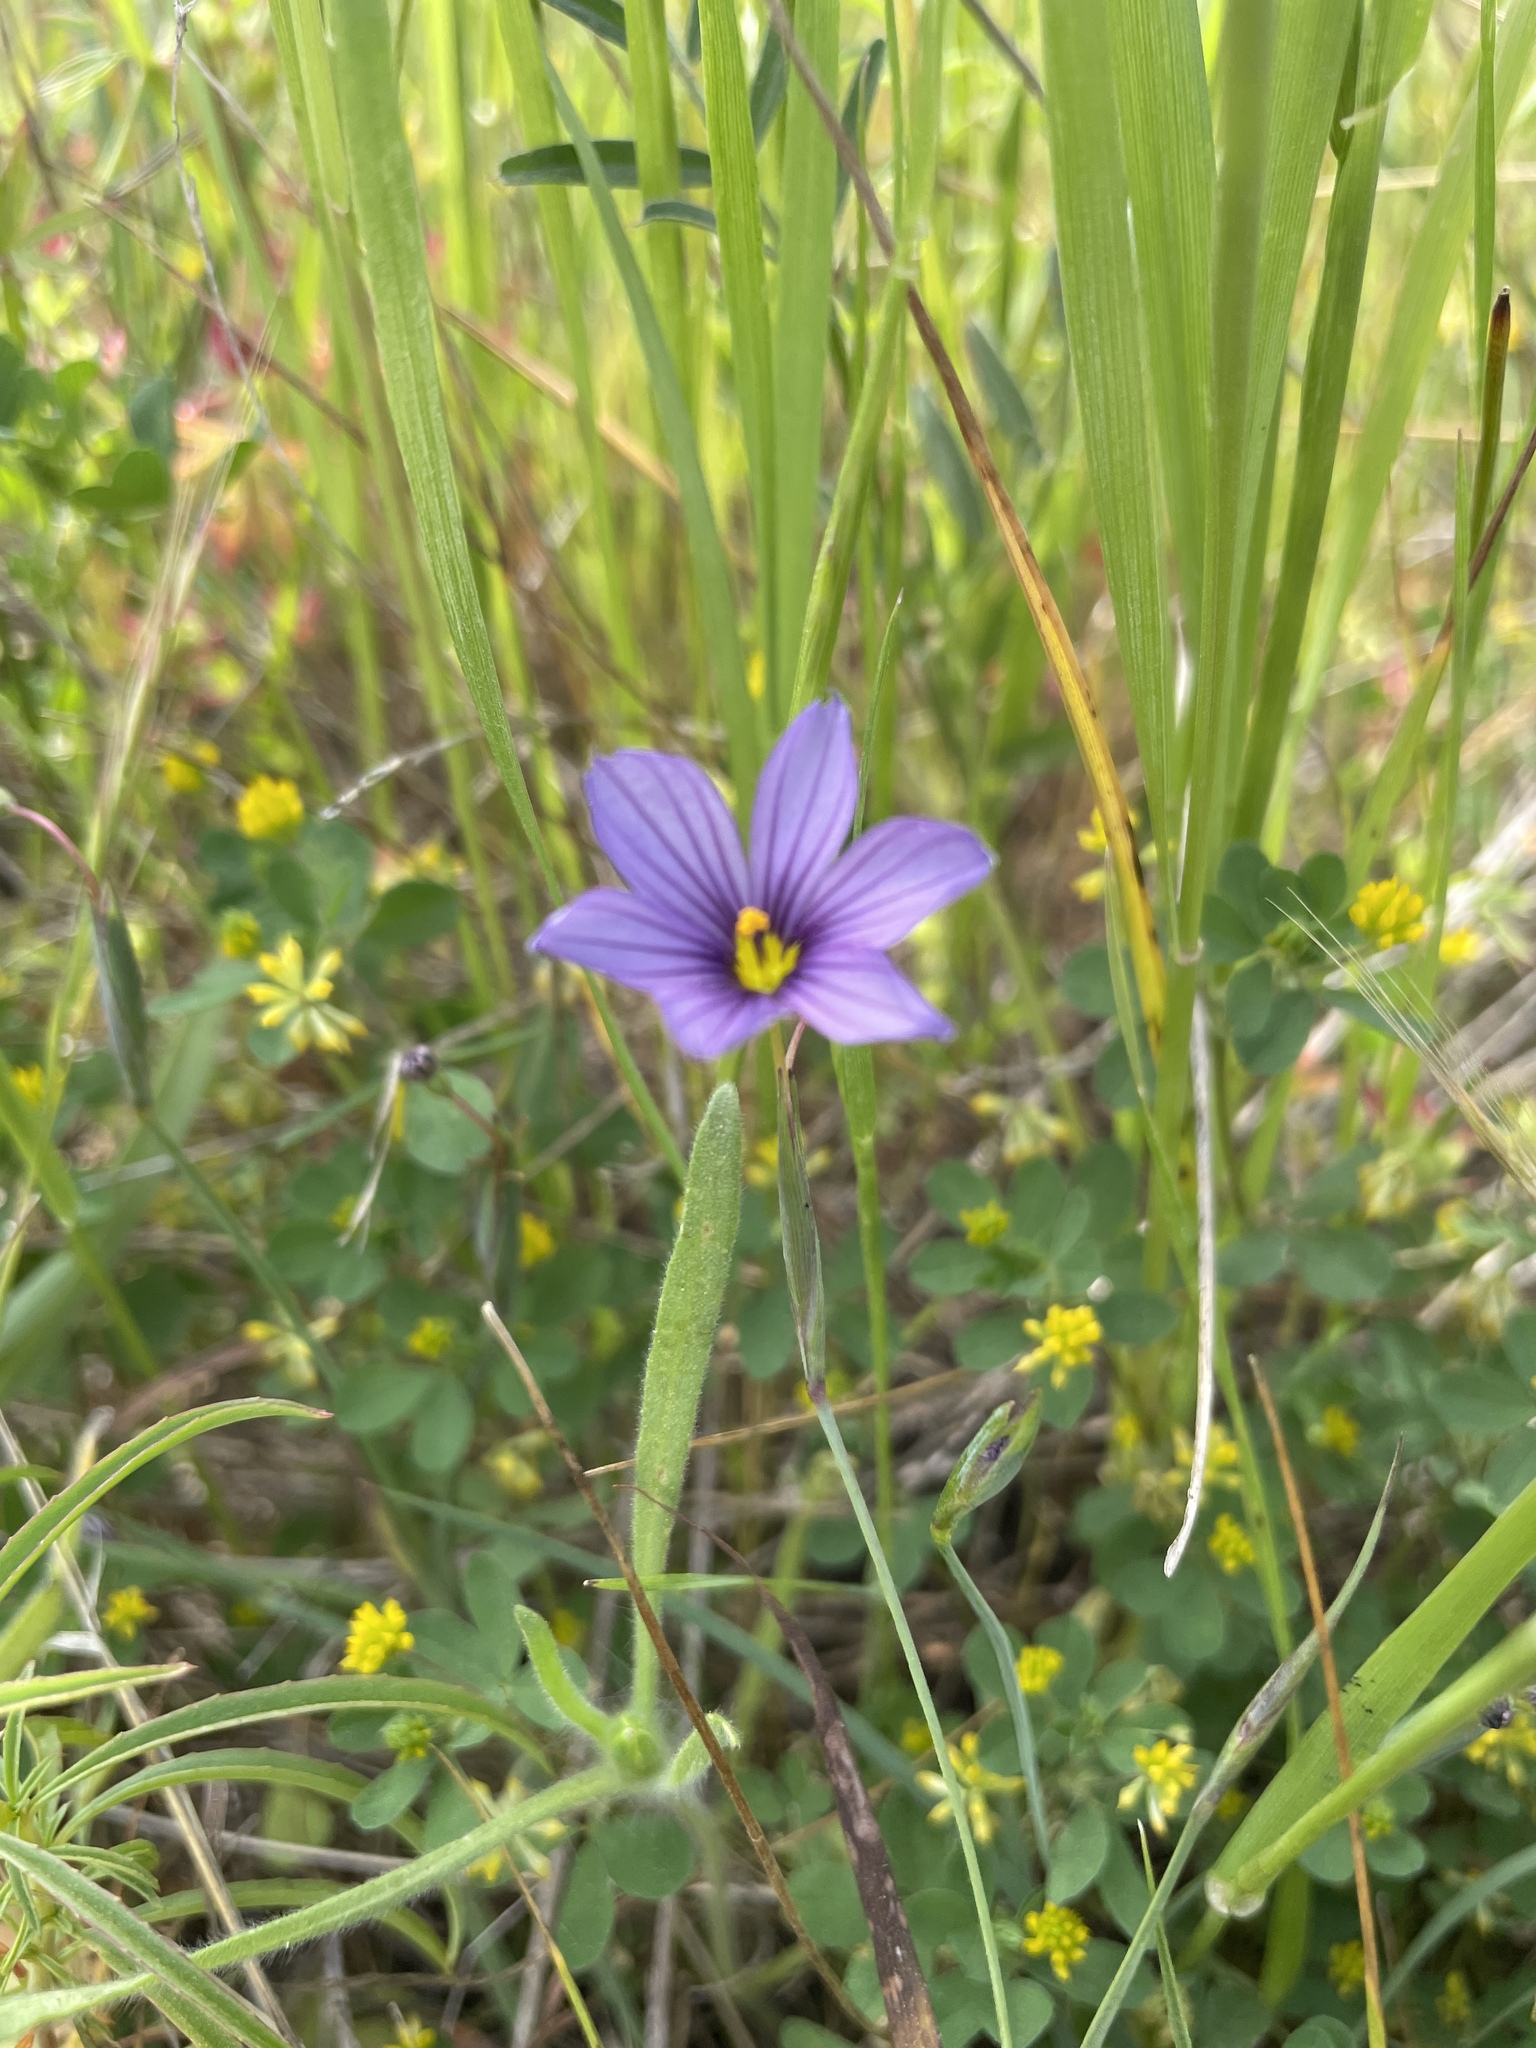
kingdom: Plantae
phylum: Tracheophyta
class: Liliopsida
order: Asparagales
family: Iridaceae
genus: Sisyrinchium
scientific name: Sisyrinchium bellum
